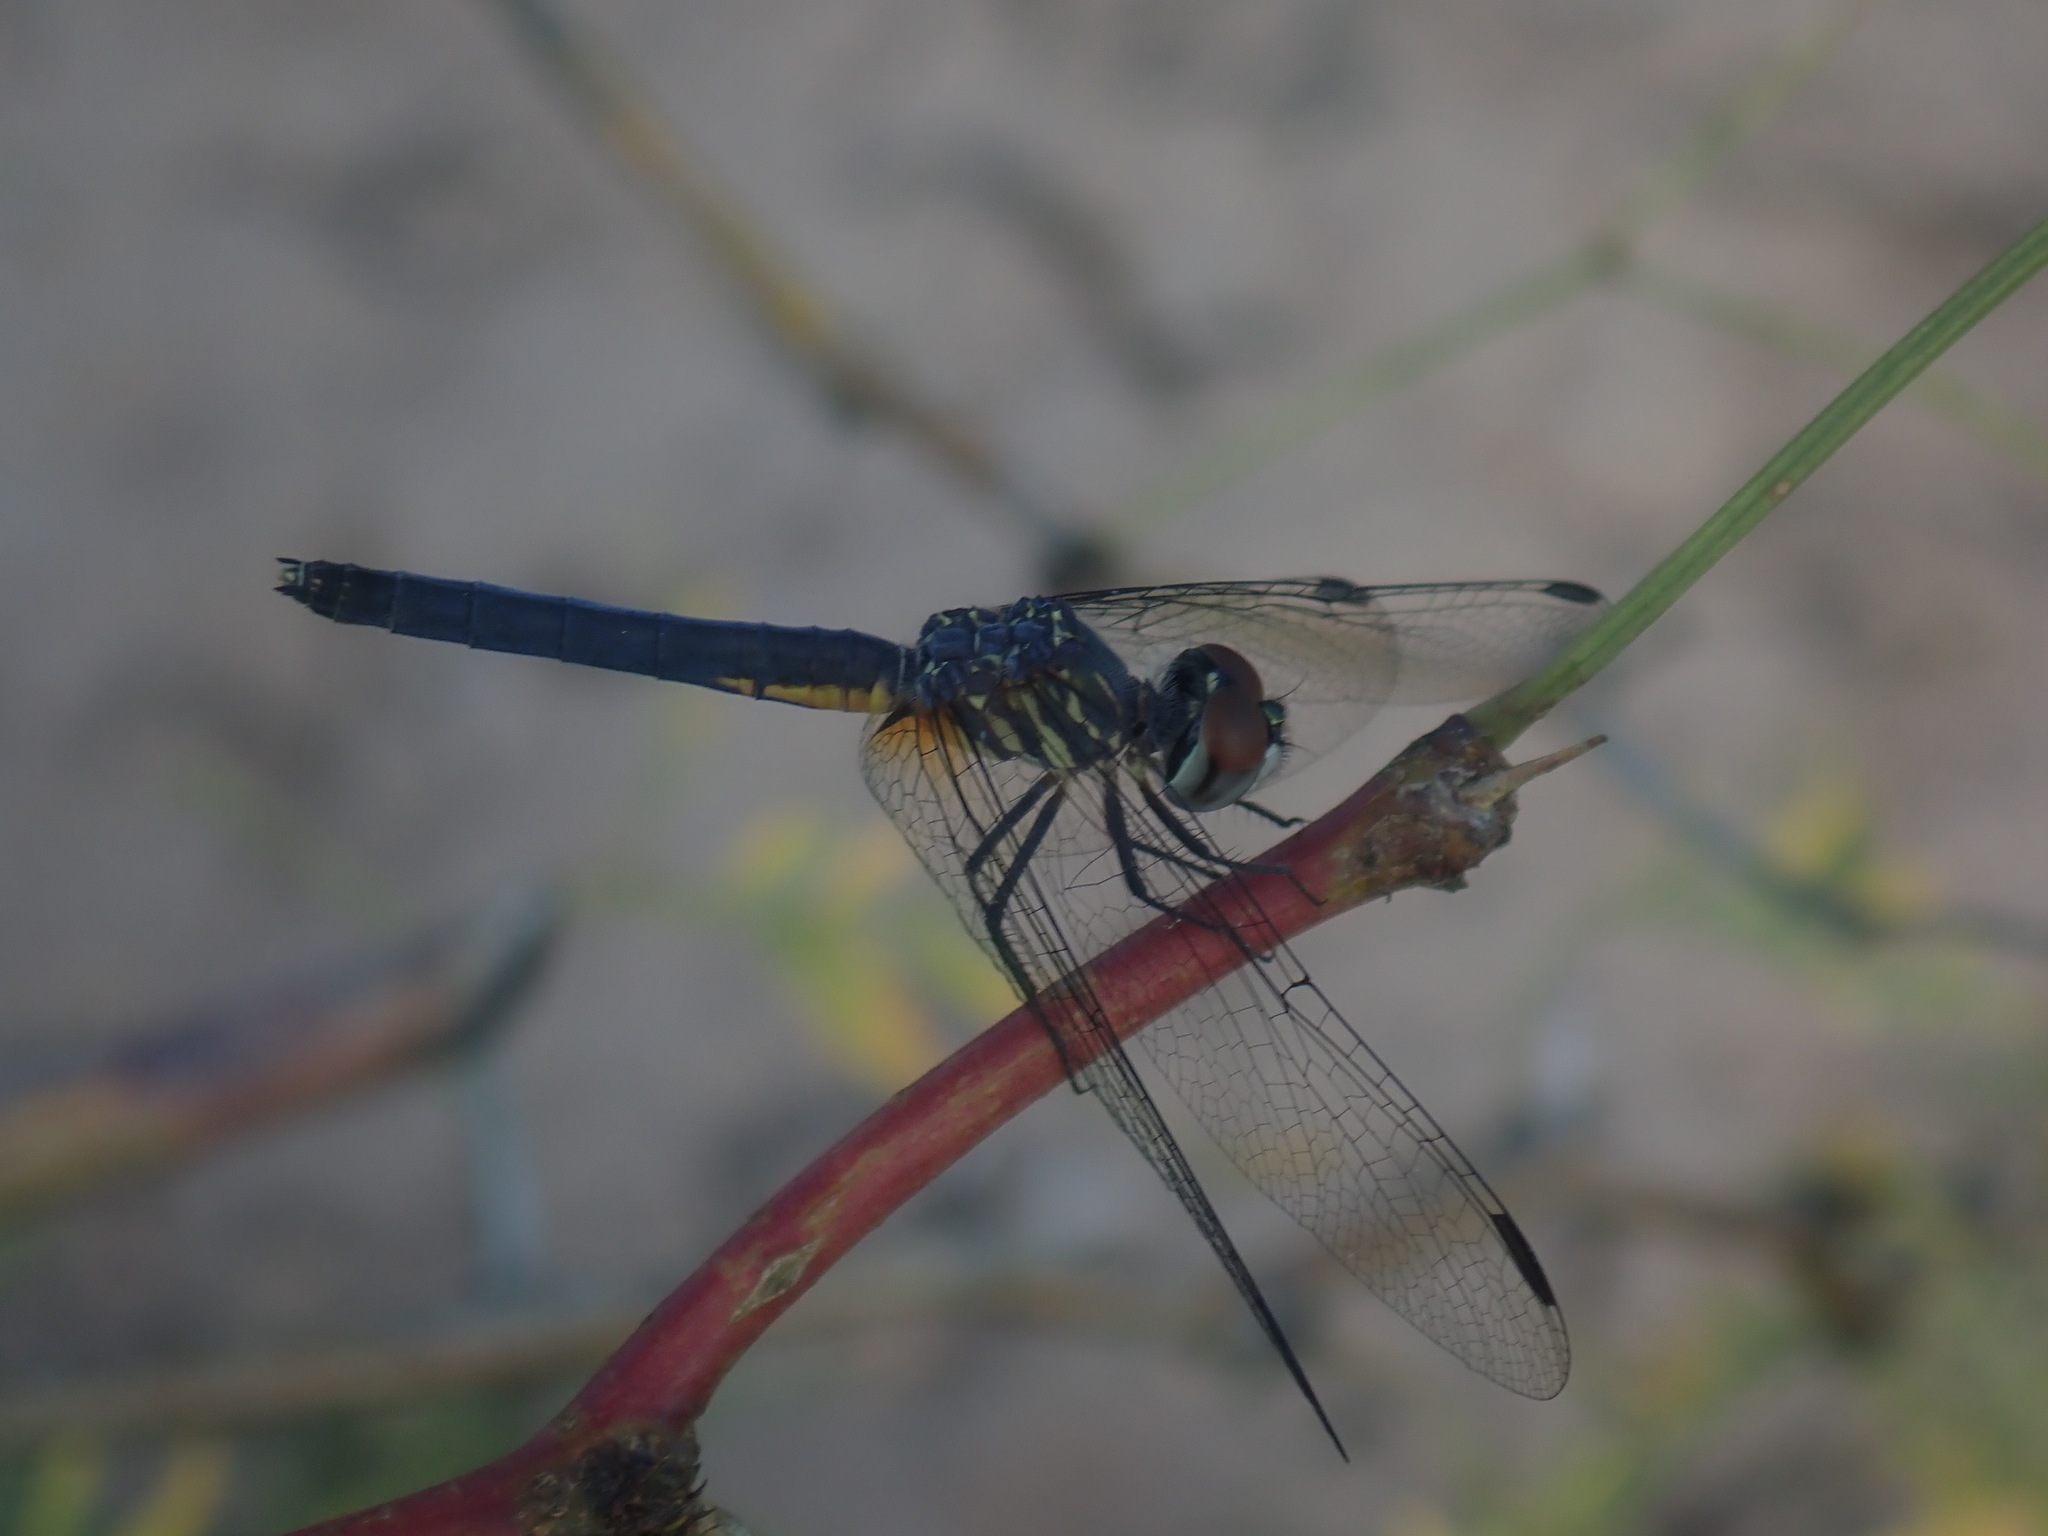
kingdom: Animalia
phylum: Arthropoda
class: Insecta
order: Odonata
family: Libellulidae
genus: Pachydiplax
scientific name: Pachydiplax longipennis
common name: Blue dasher
